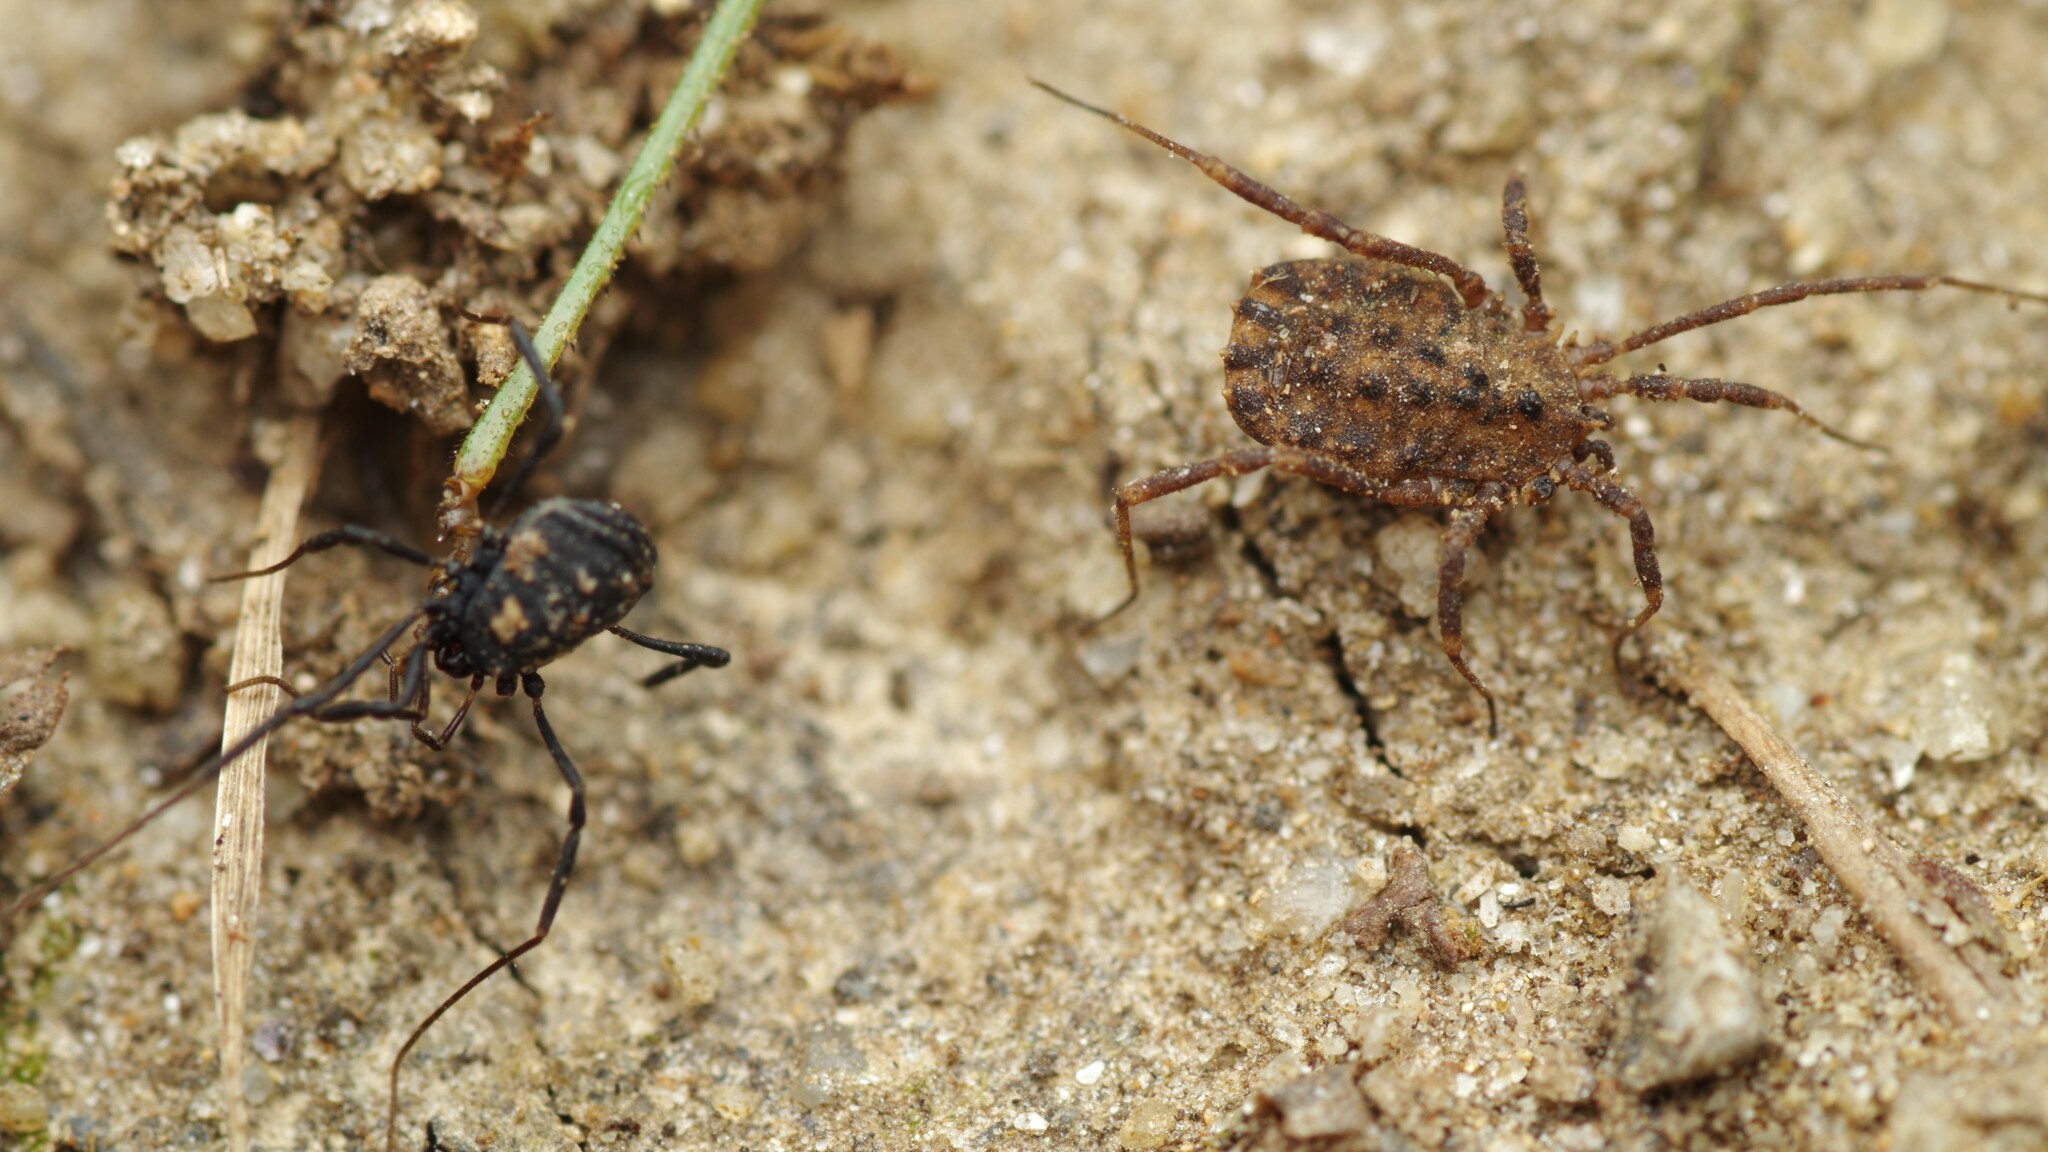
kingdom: Animalia
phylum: Arthropoda
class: Arachnida
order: Opiliones
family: Sclerosomatidae
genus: Homalenotus
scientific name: Homalenotus quadridentatus
